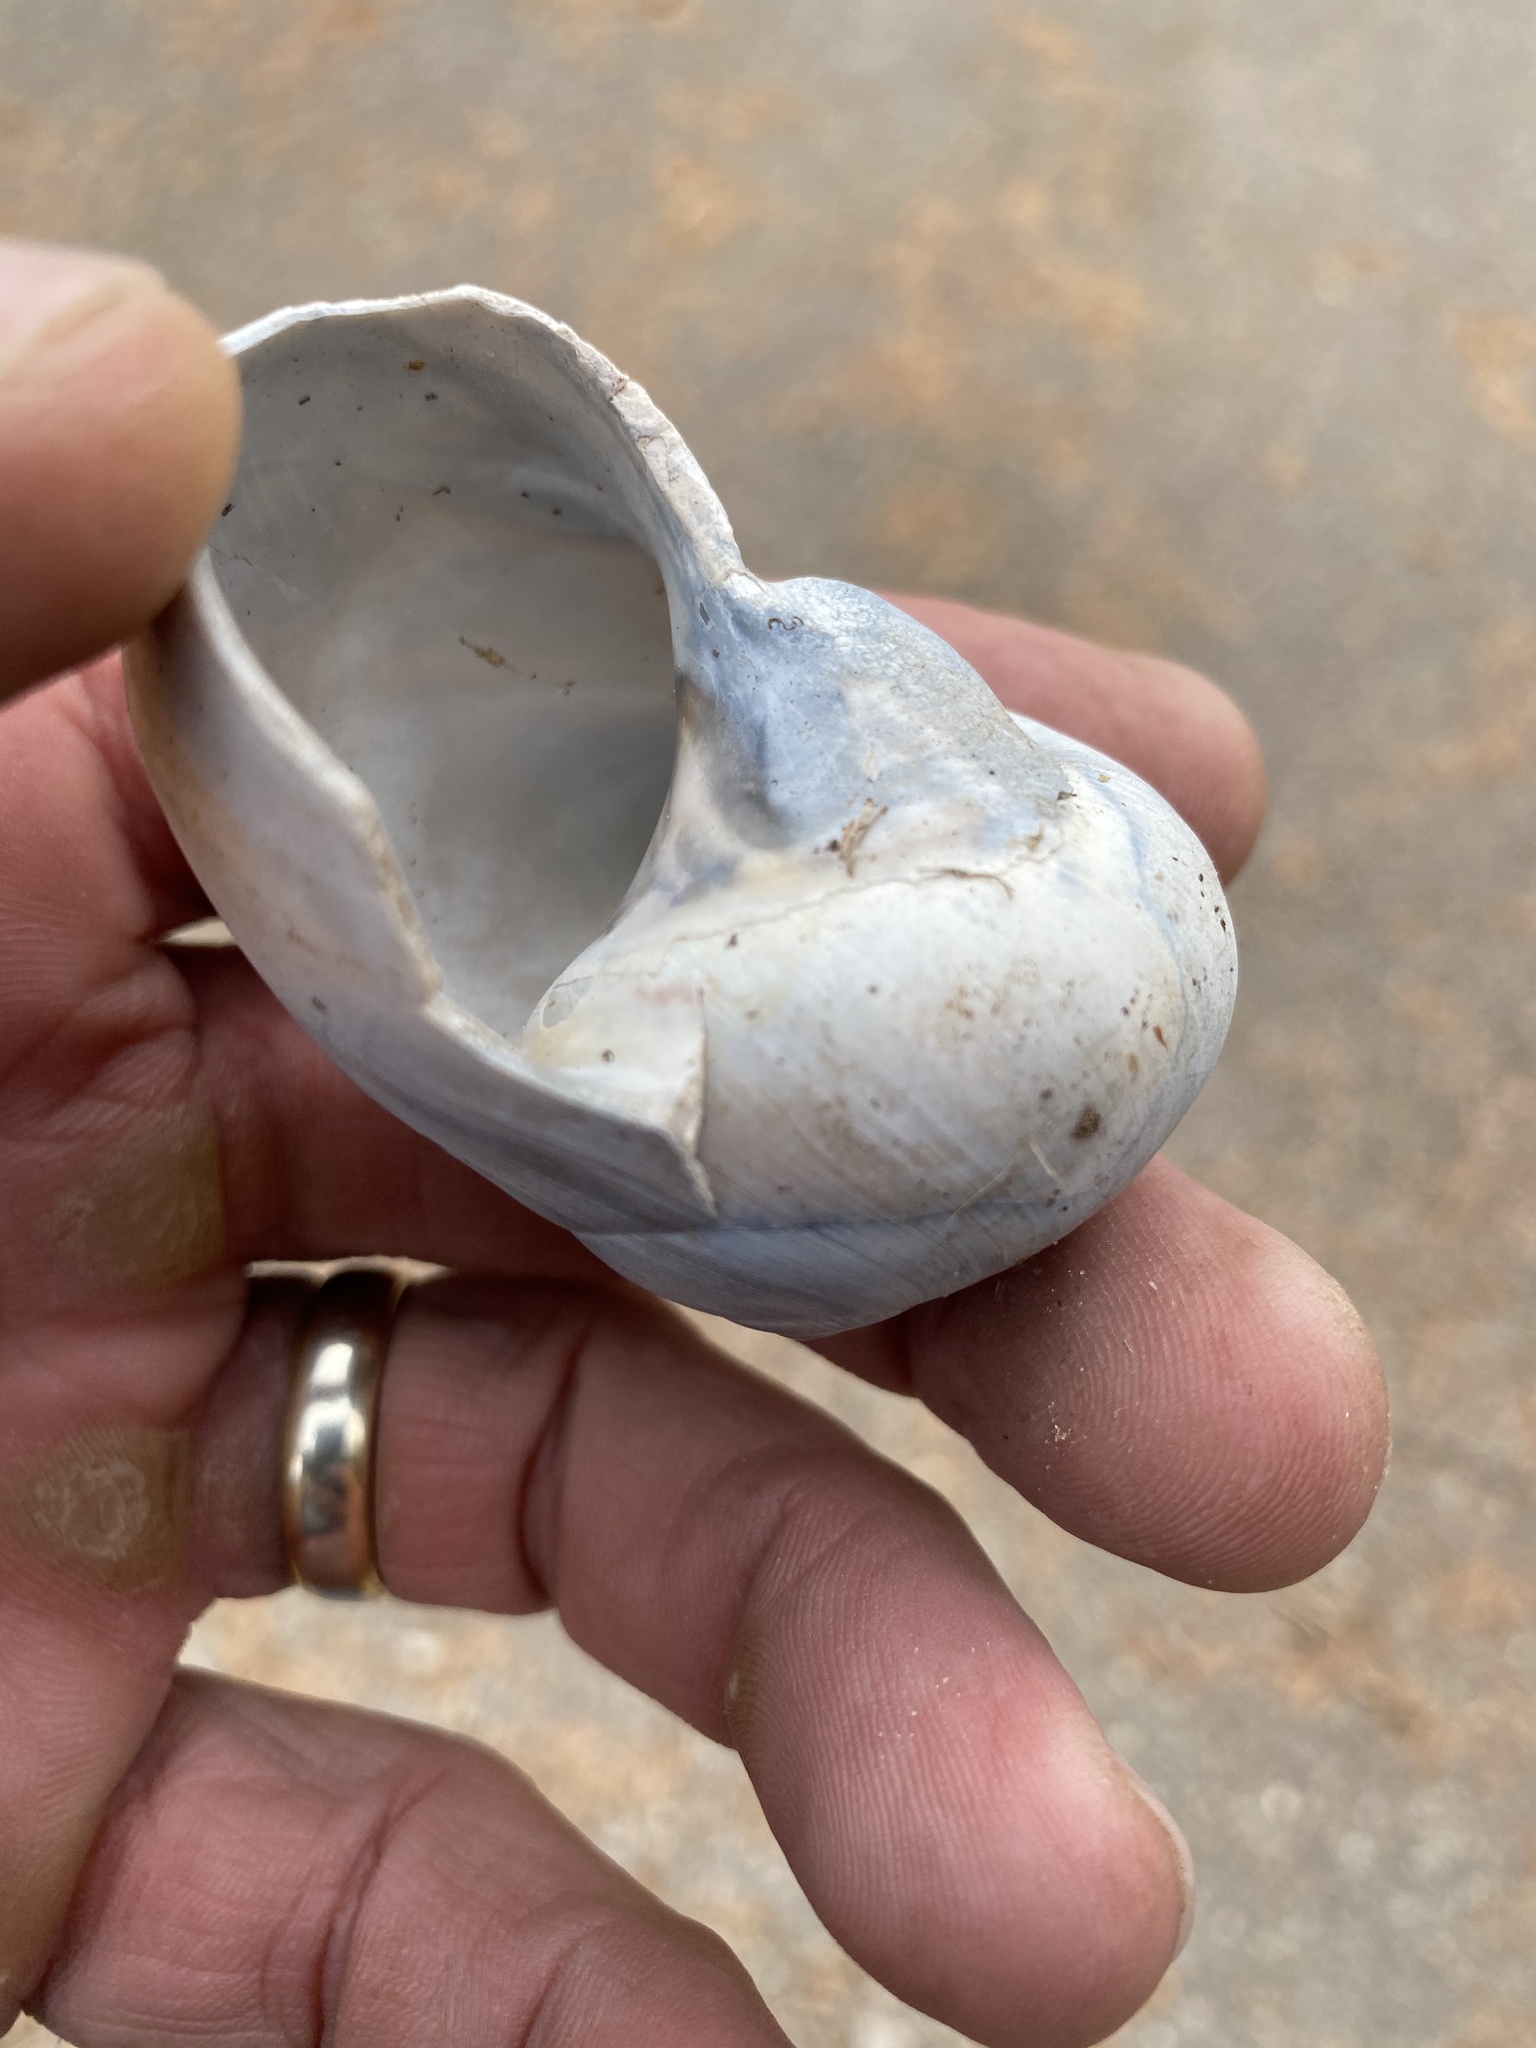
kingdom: Animalia
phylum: Mollusca
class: Gastropoda
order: Littorinimorpha
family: Naticidae
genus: Neverita
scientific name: Neverita duplicata
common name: Lobed moonsnail
